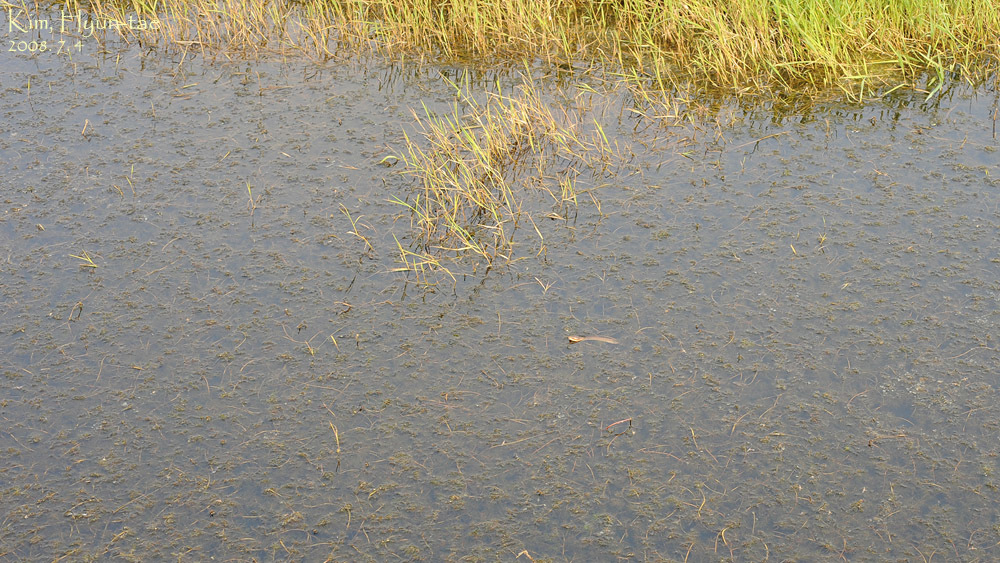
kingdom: Animalia
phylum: Chordata
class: Squamata
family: Colubridae
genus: Oocatochus
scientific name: Oocatochus rufodorsatus
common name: Frog-eating rat snake
